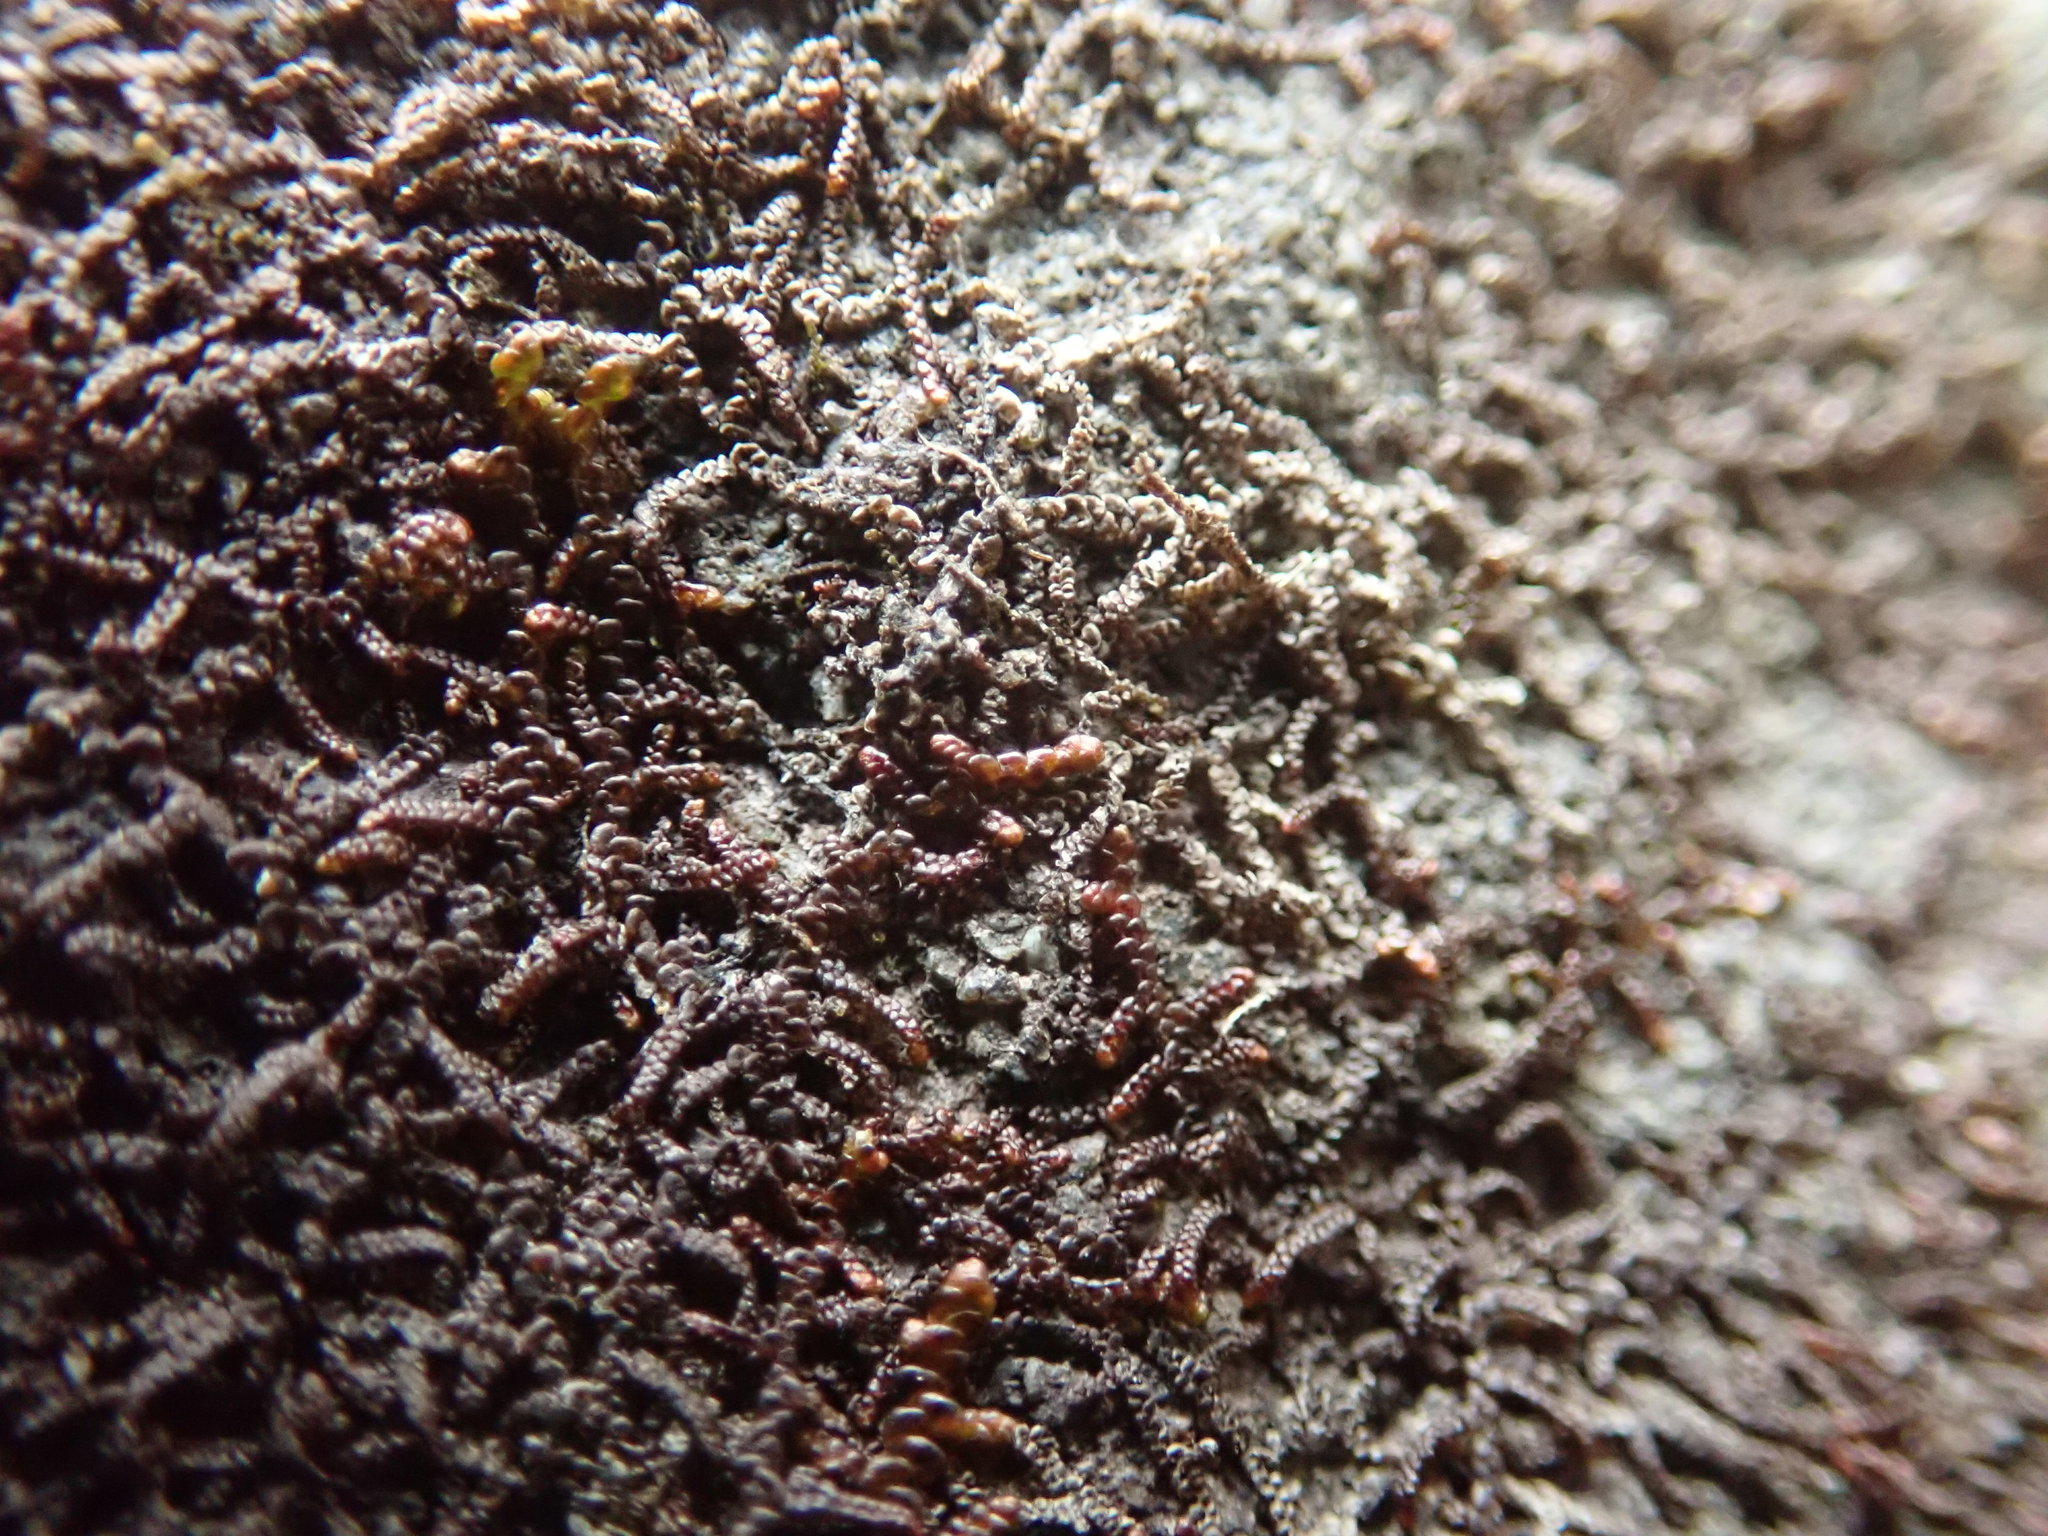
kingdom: Plantae
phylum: Marchantiophyta
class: Jungermanniopsida
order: Porellales
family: Frullaniaceae
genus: Frullania
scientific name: Frullania nisquallensis
